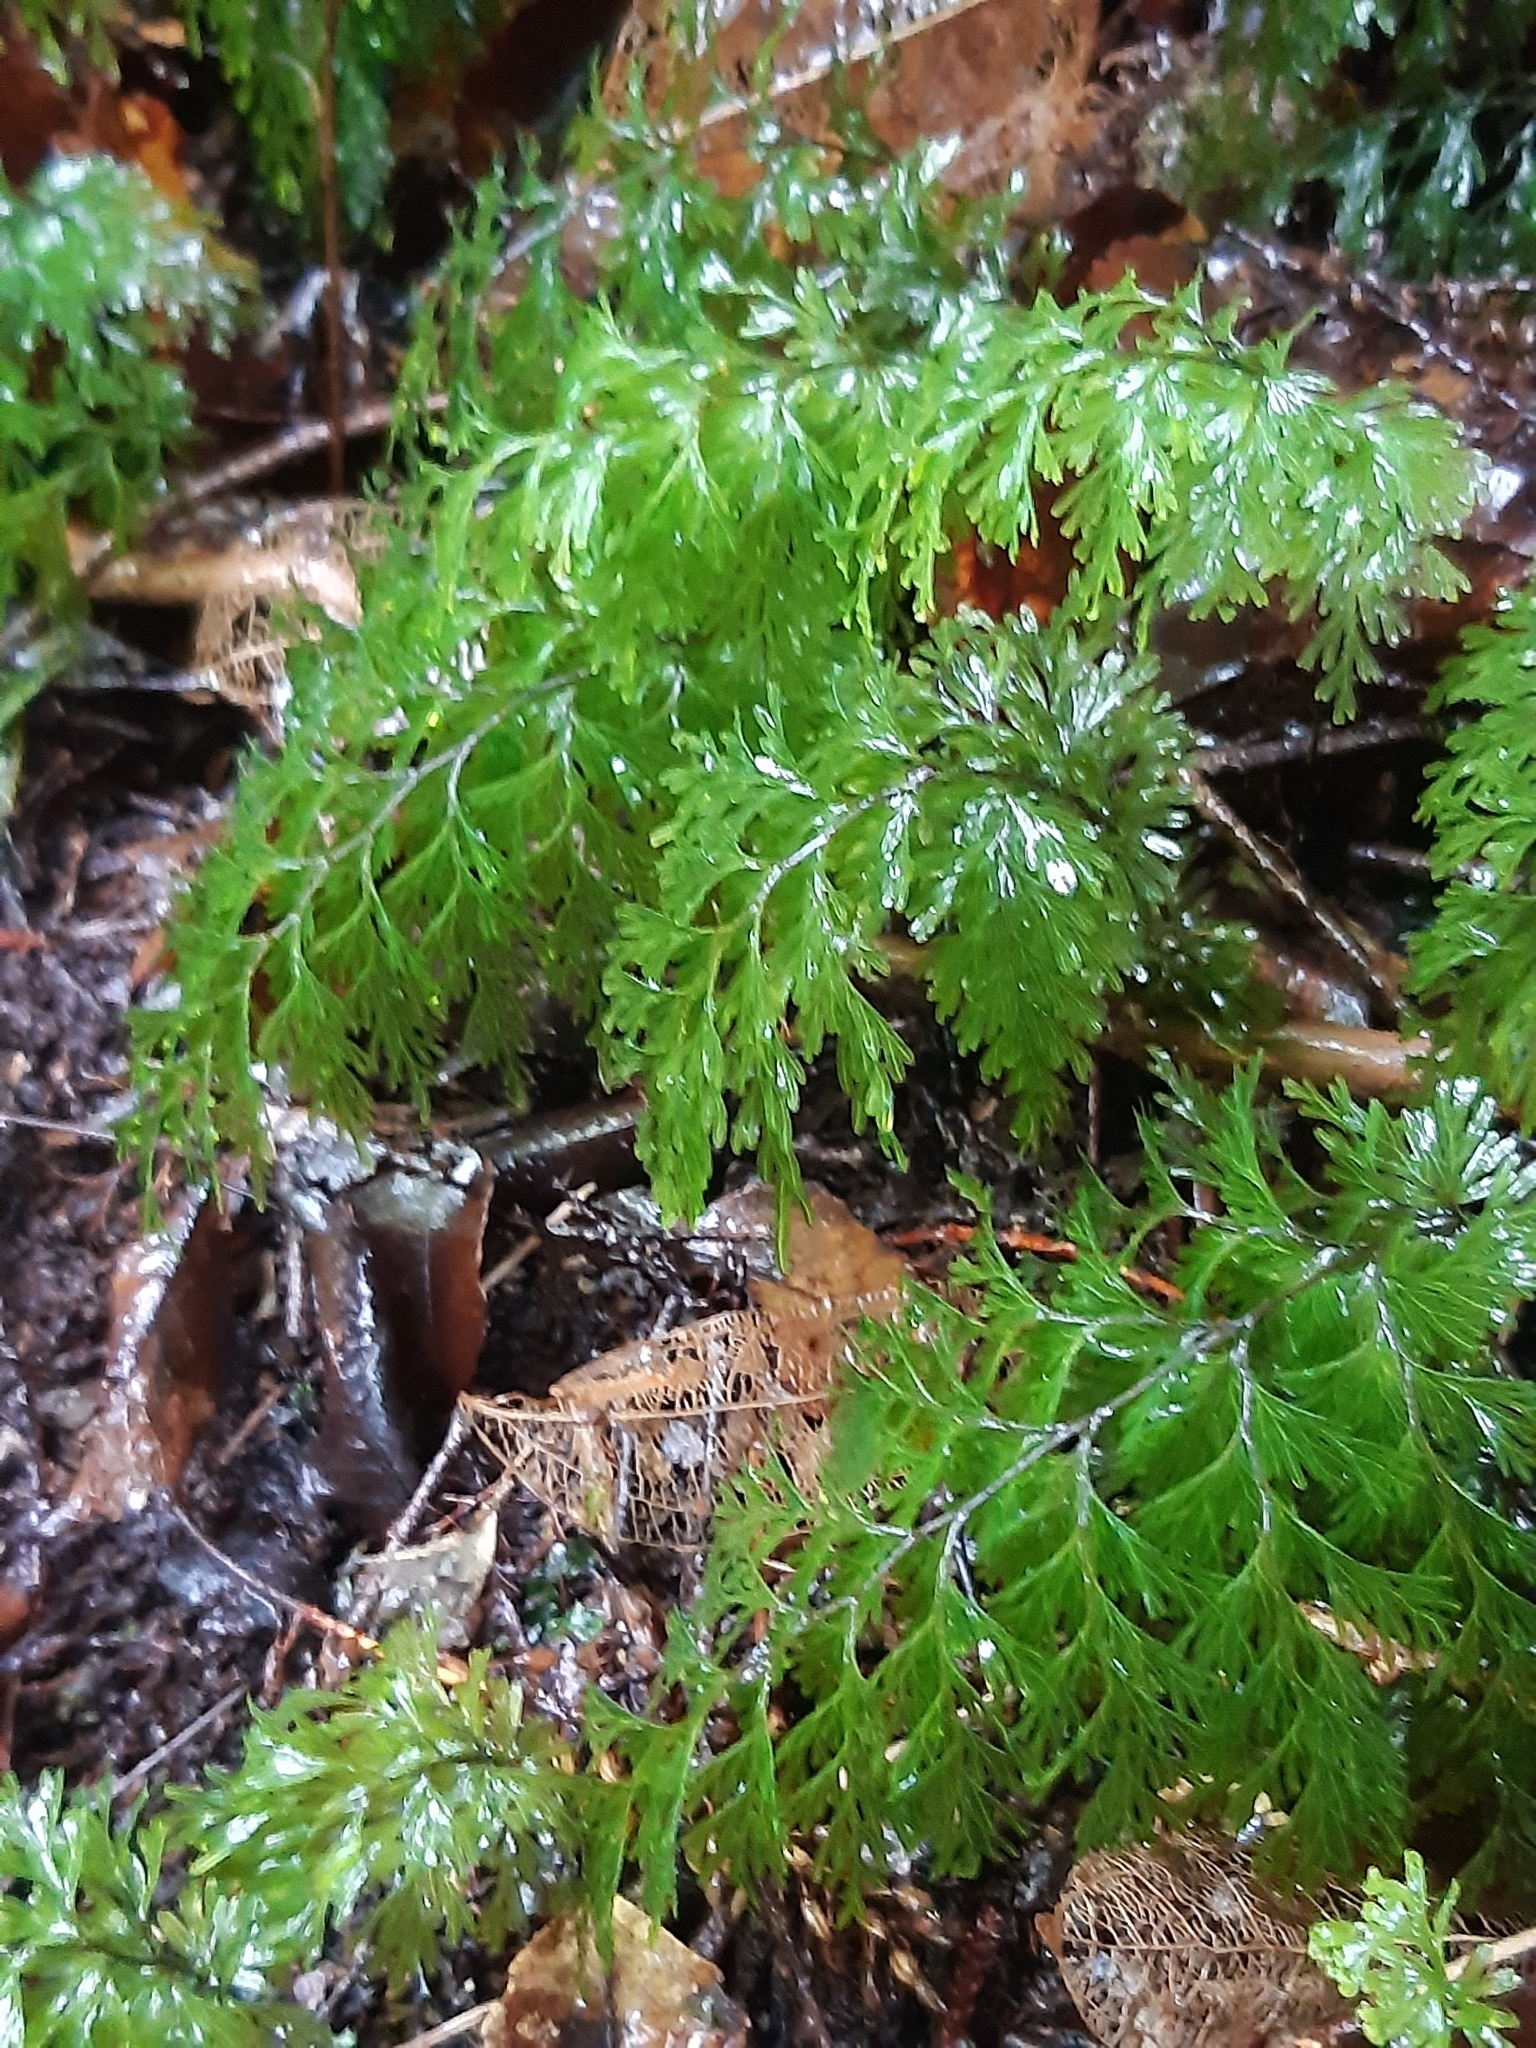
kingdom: Plantae
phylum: Tracheophyta
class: Polypodiopsida
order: Hymenophyllales
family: Hymenophyllaceae
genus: Hymenophyllum
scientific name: Hymenophyllum demissum
